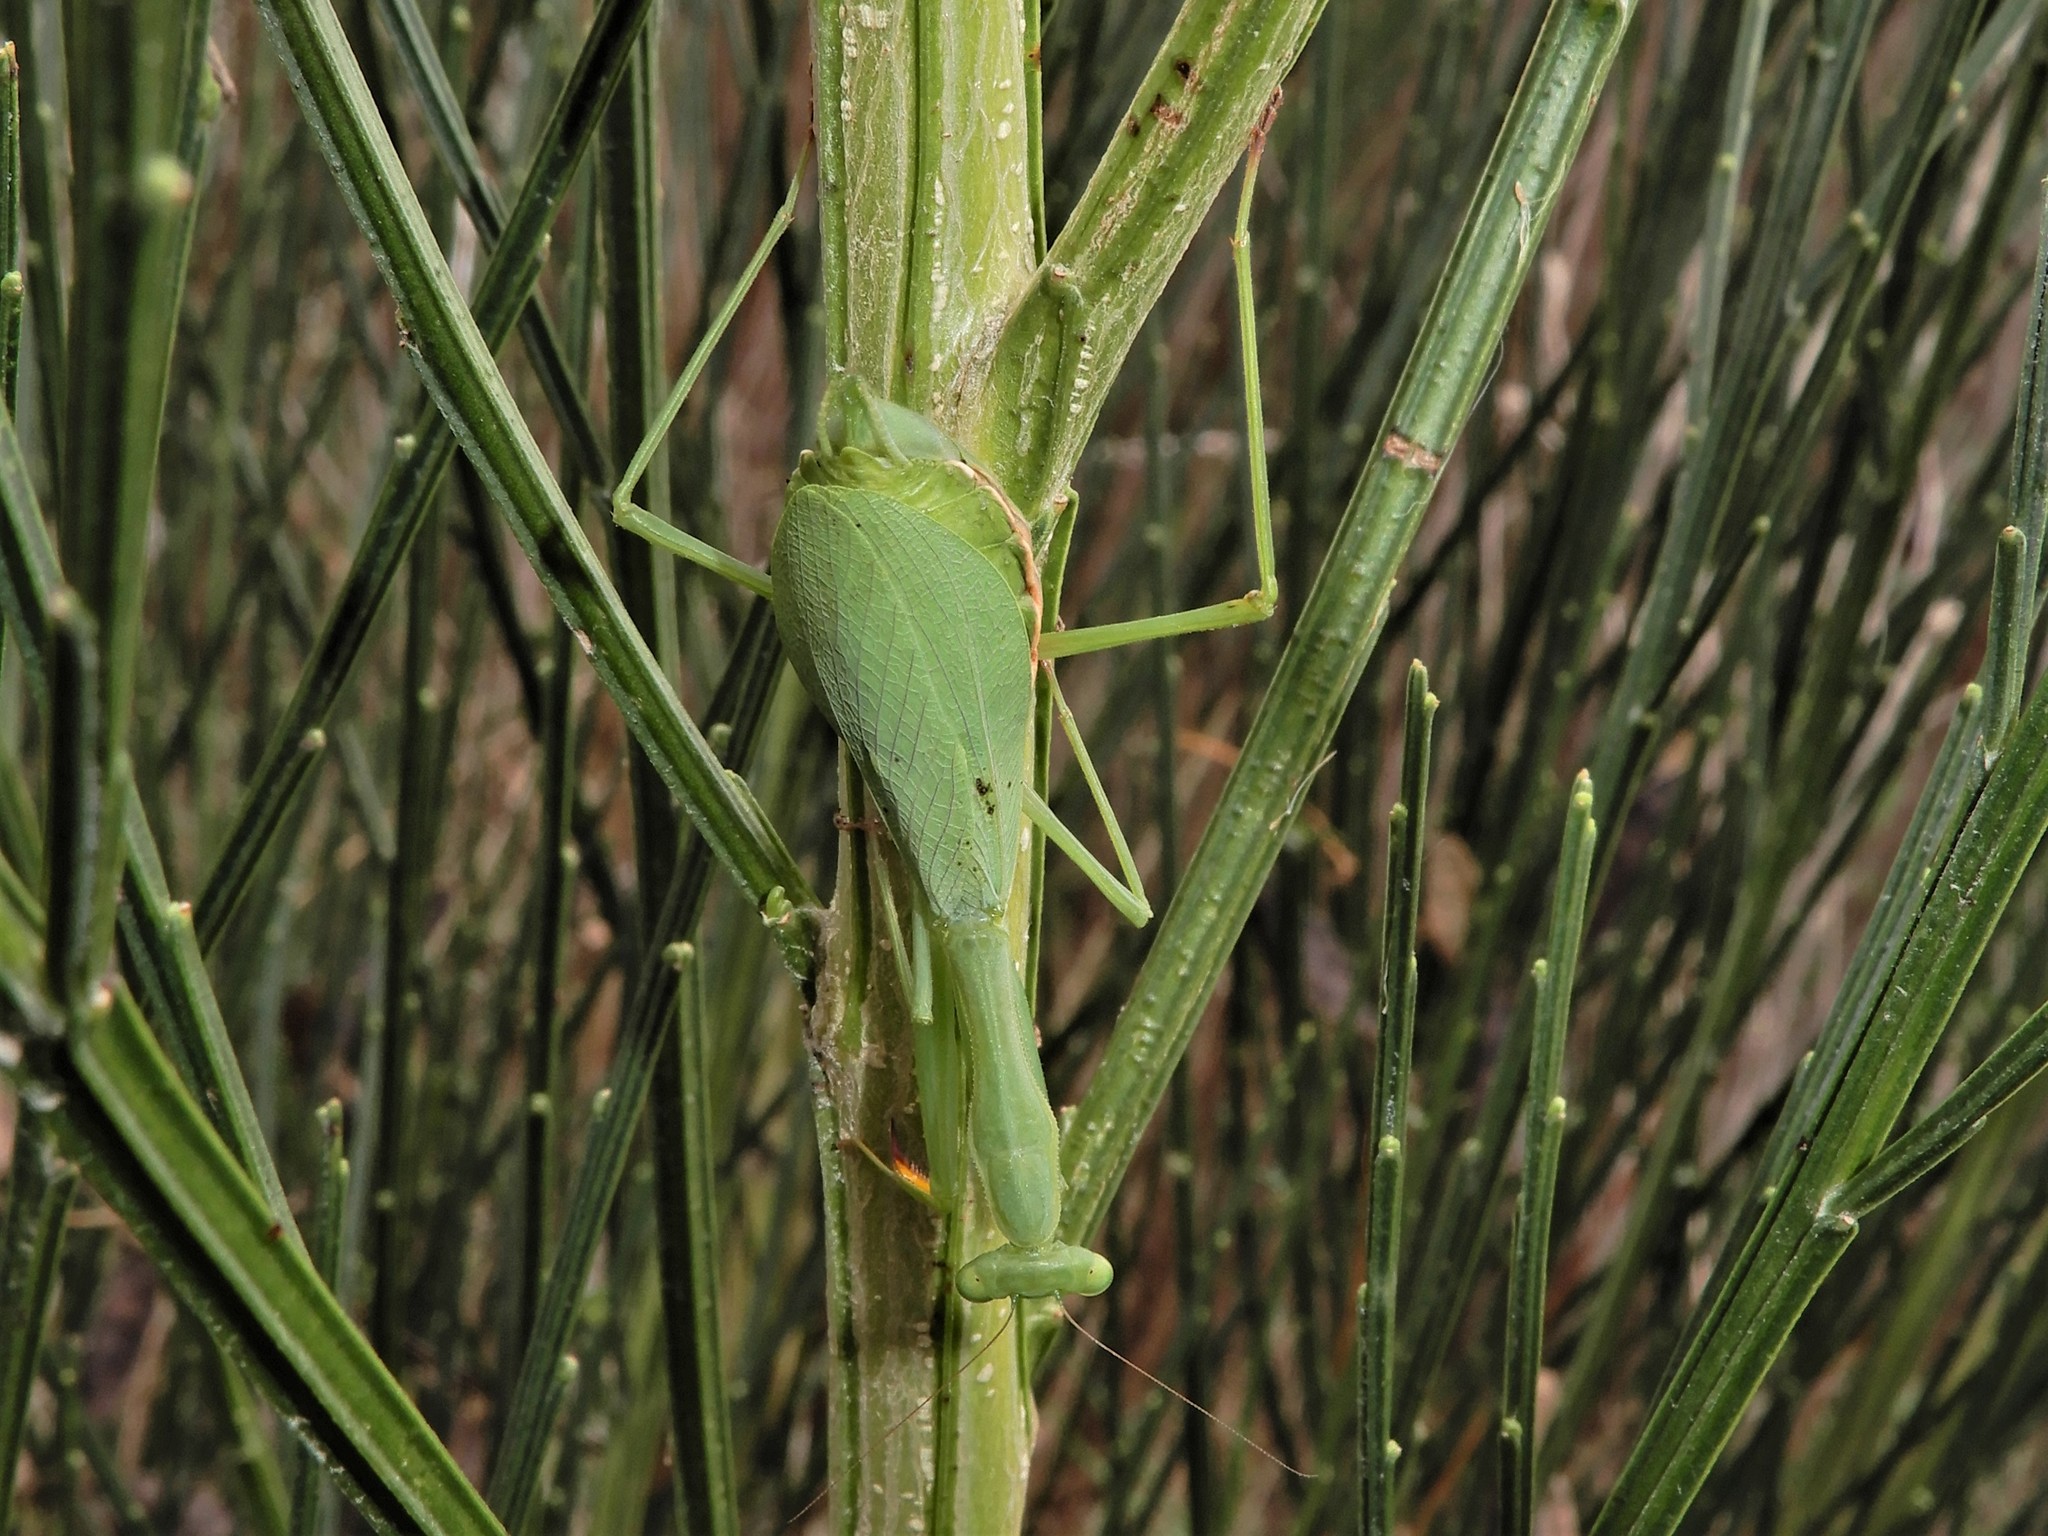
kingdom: Animalia
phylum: Arthropoda
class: Insecta
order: Mantodea
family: Miomantidae
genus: Miomantis
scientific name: Miomantis caffra
